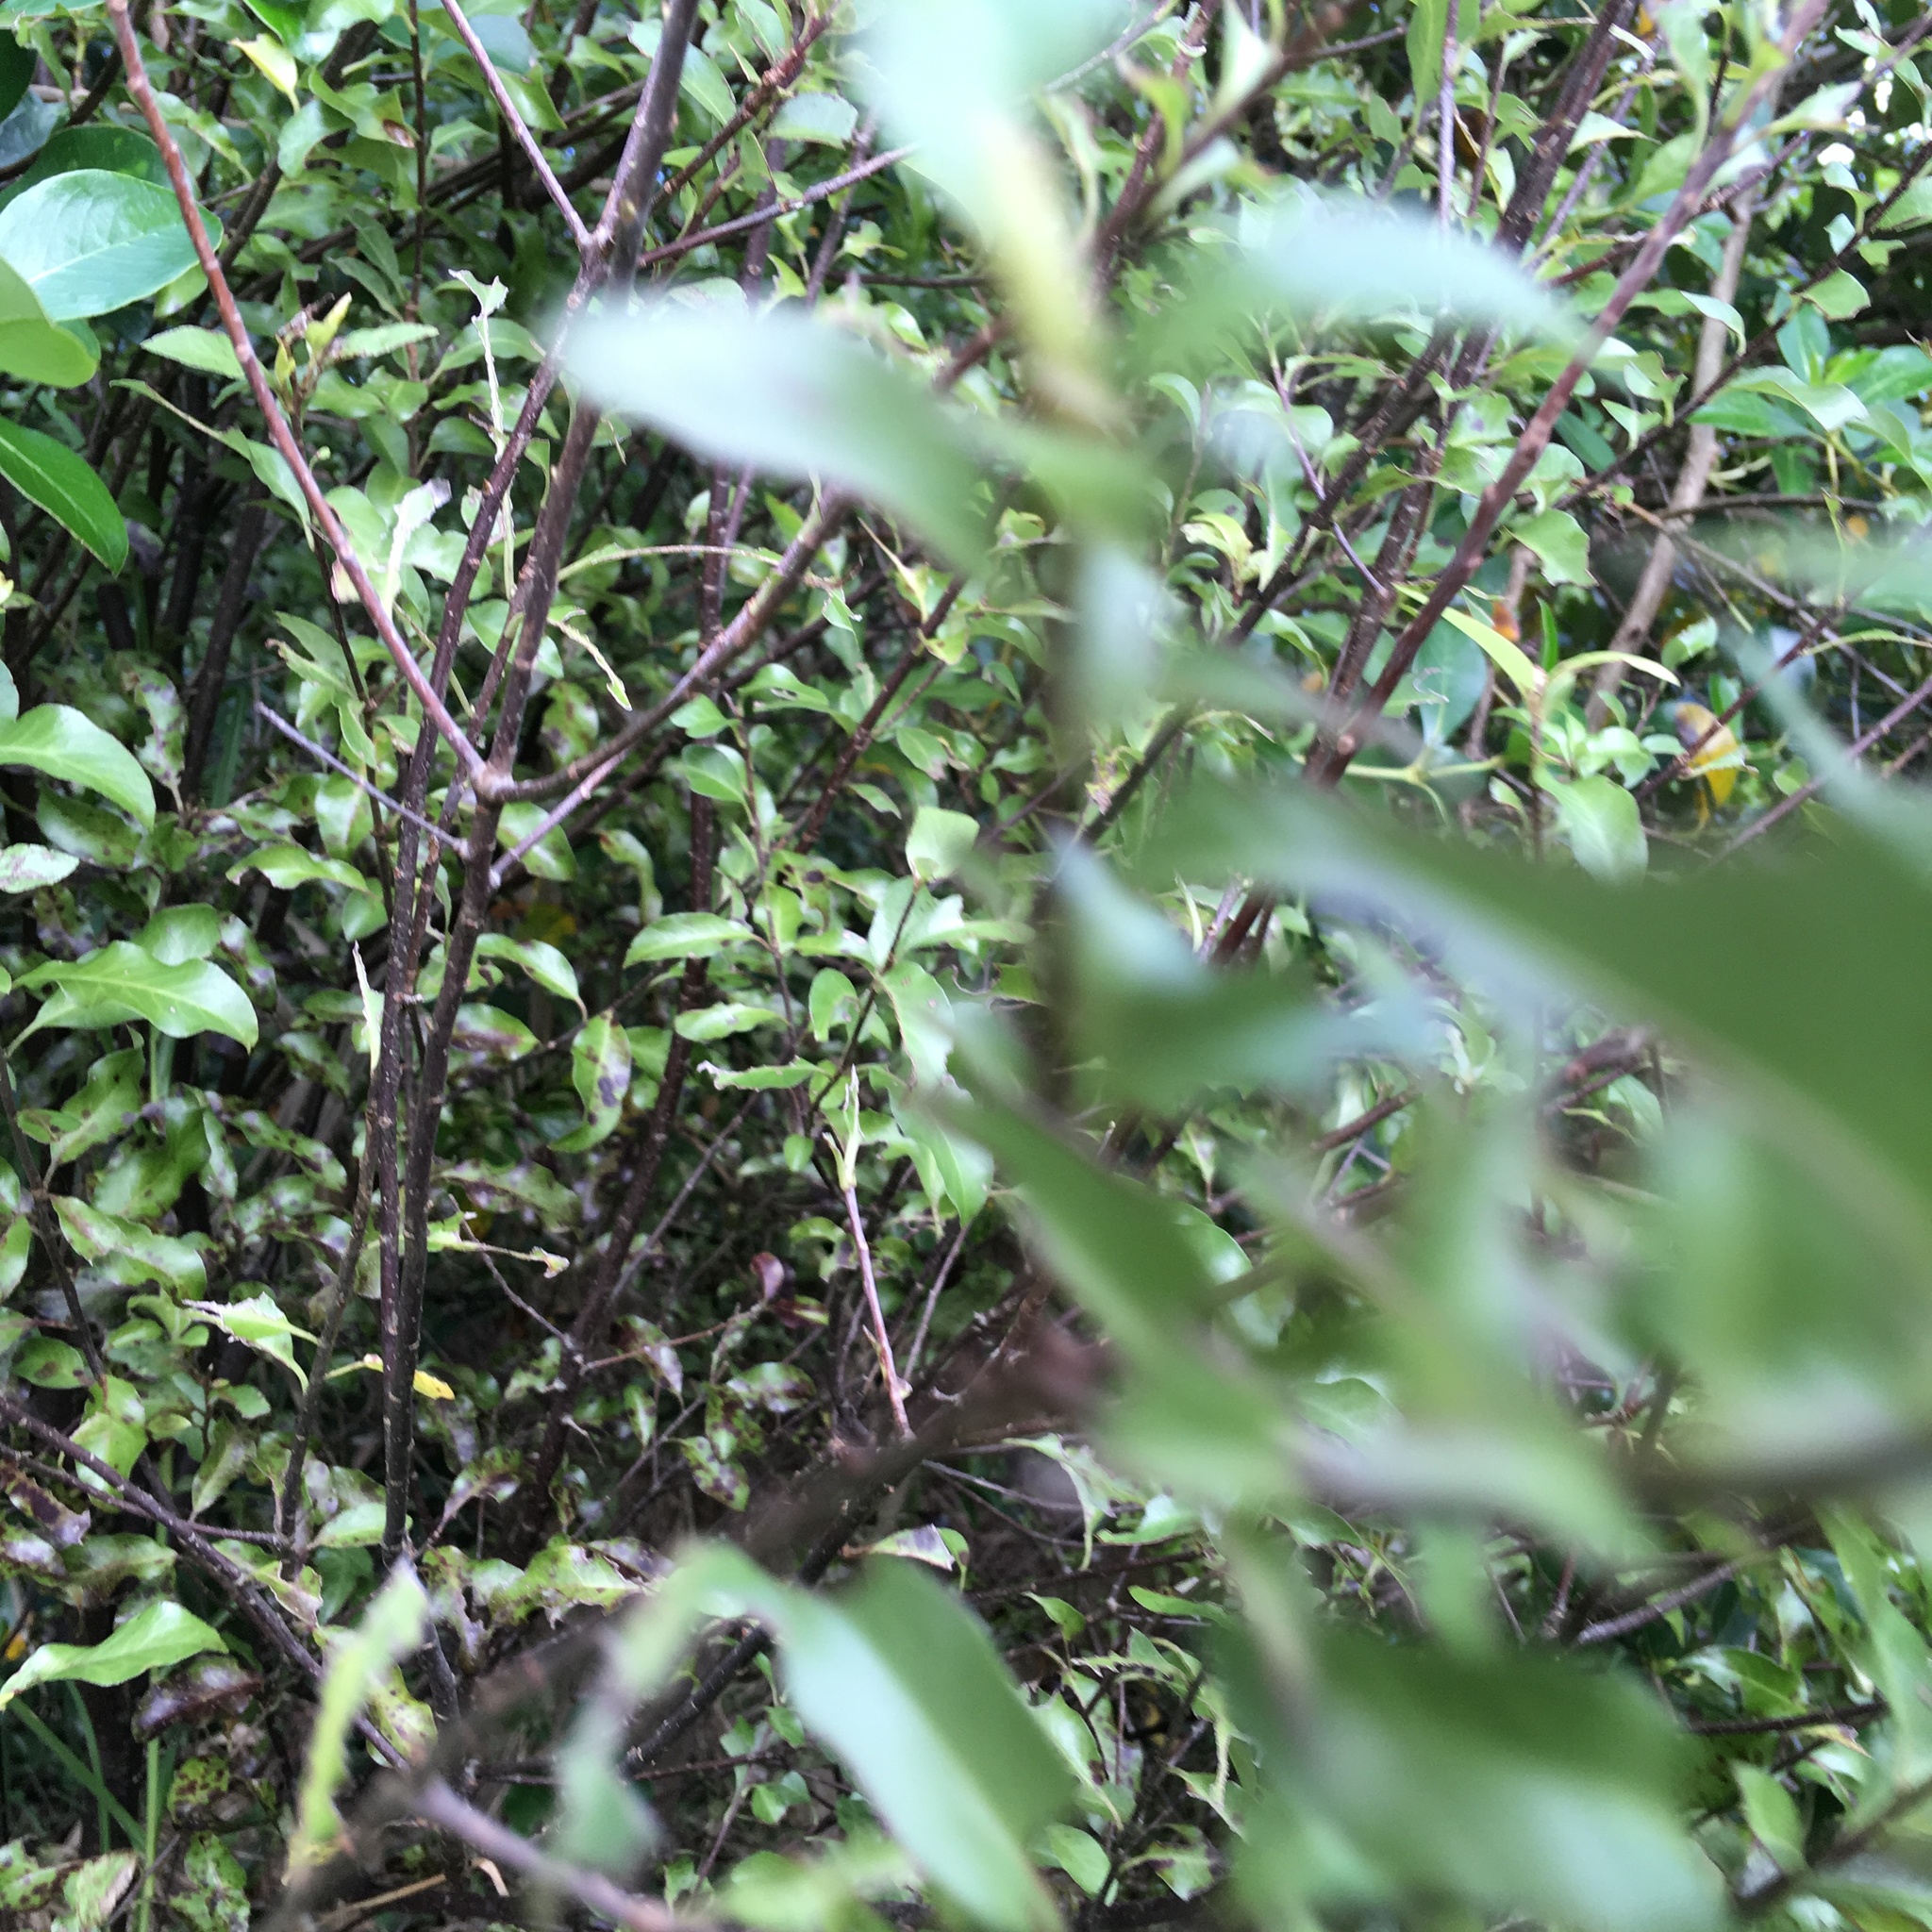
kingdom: Plantae
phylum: Tracheophyta
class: Magnoliopsida
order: Apiales
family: Pittosporaceae
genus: Pittosporum
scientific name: Pittosporum tenuifolium
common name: Kohuhu
